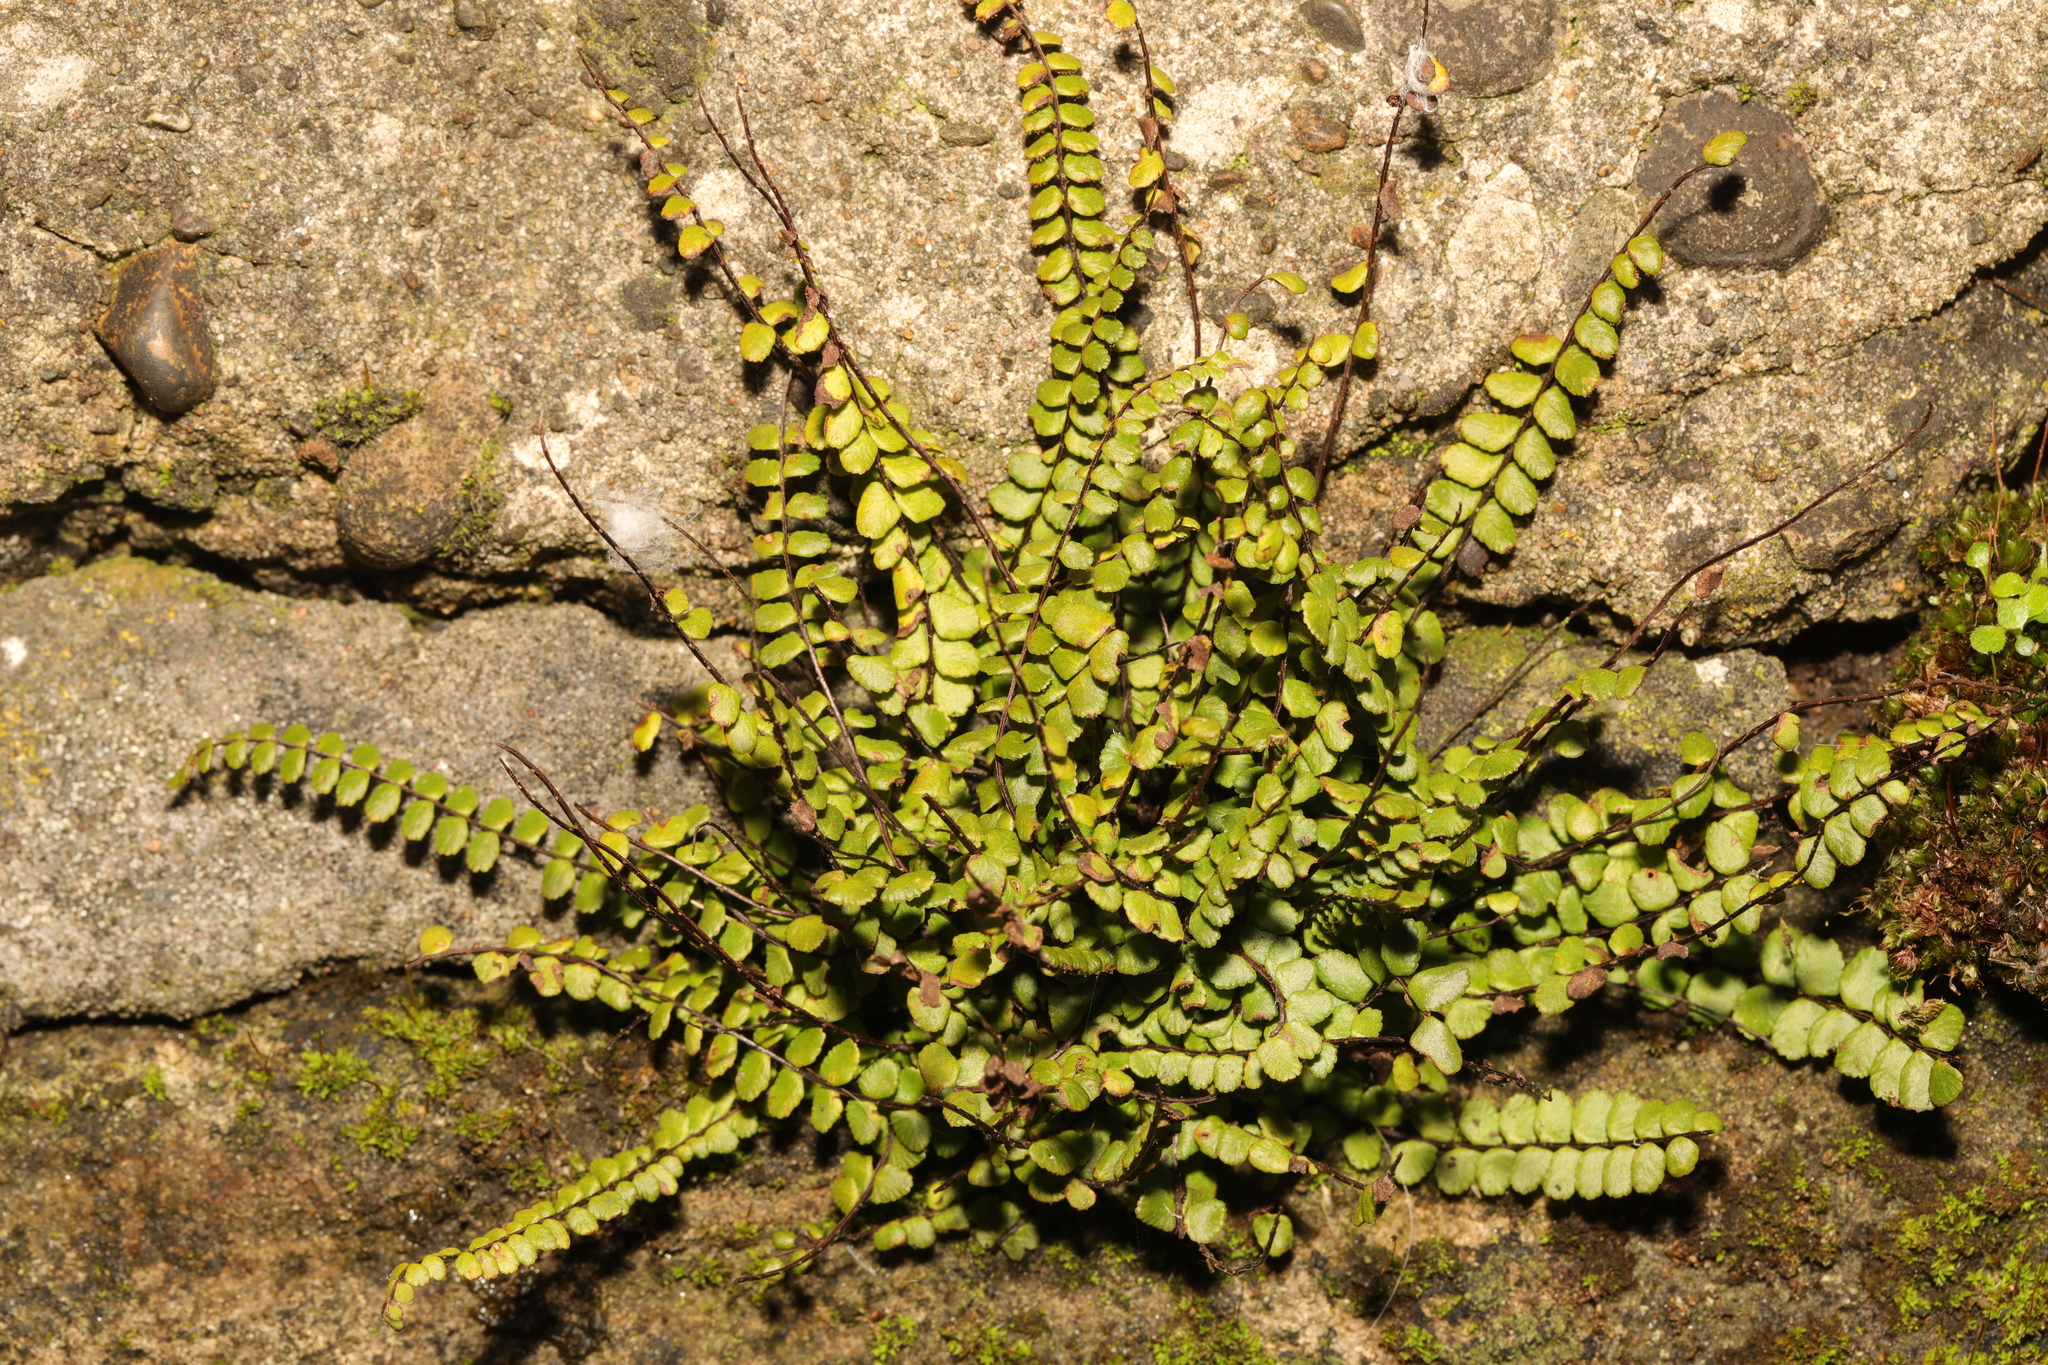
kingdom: Plantae
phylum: Tracheophyta
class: Polypodiopsida
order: Polypodiales
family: Aspleniaceae
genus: Asplenium
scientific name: Asplenium trichomanes
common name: Maidenhair spleenwort
